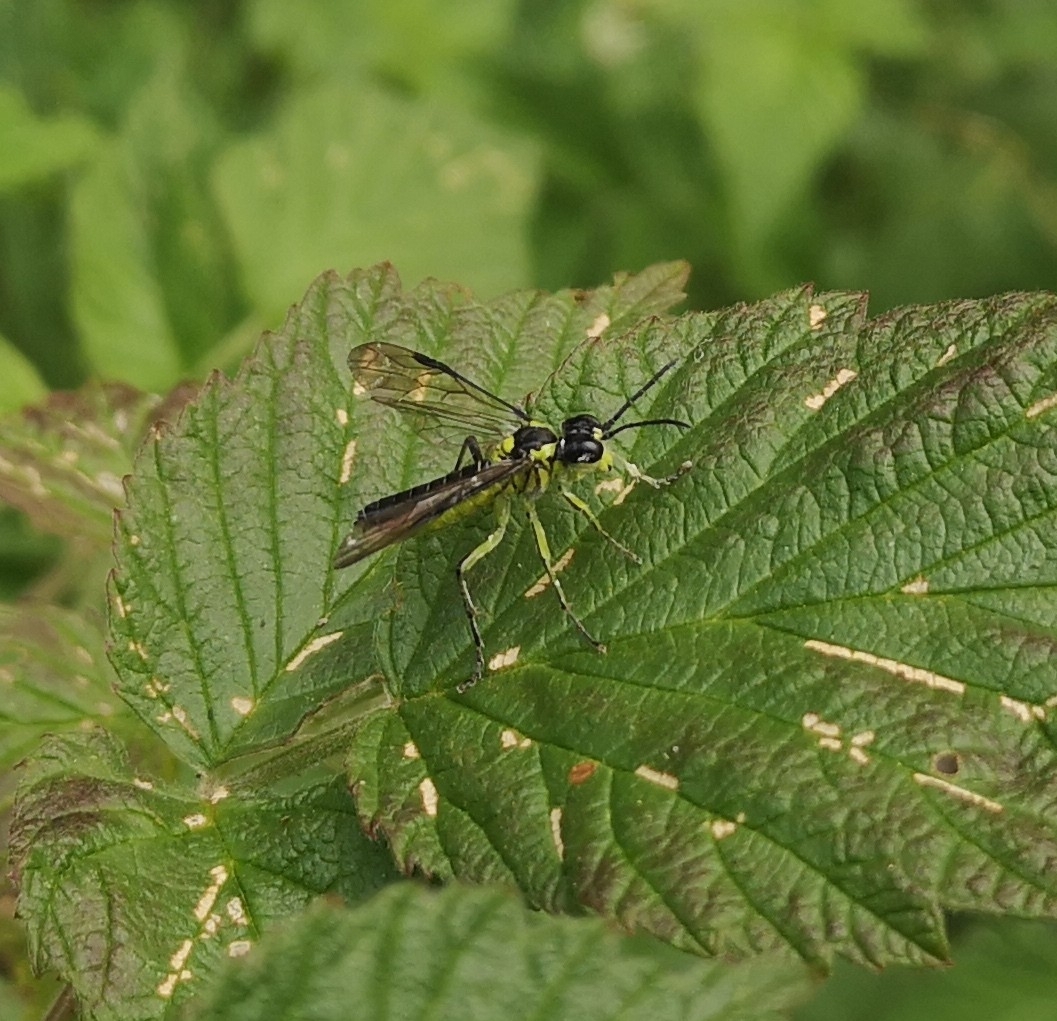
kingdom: Animalia
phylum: Arthropoda
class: Insecta
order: Hymenoptera
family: Tenthredinidae
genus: Tenthredo
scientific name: Tenthredo mesomela
